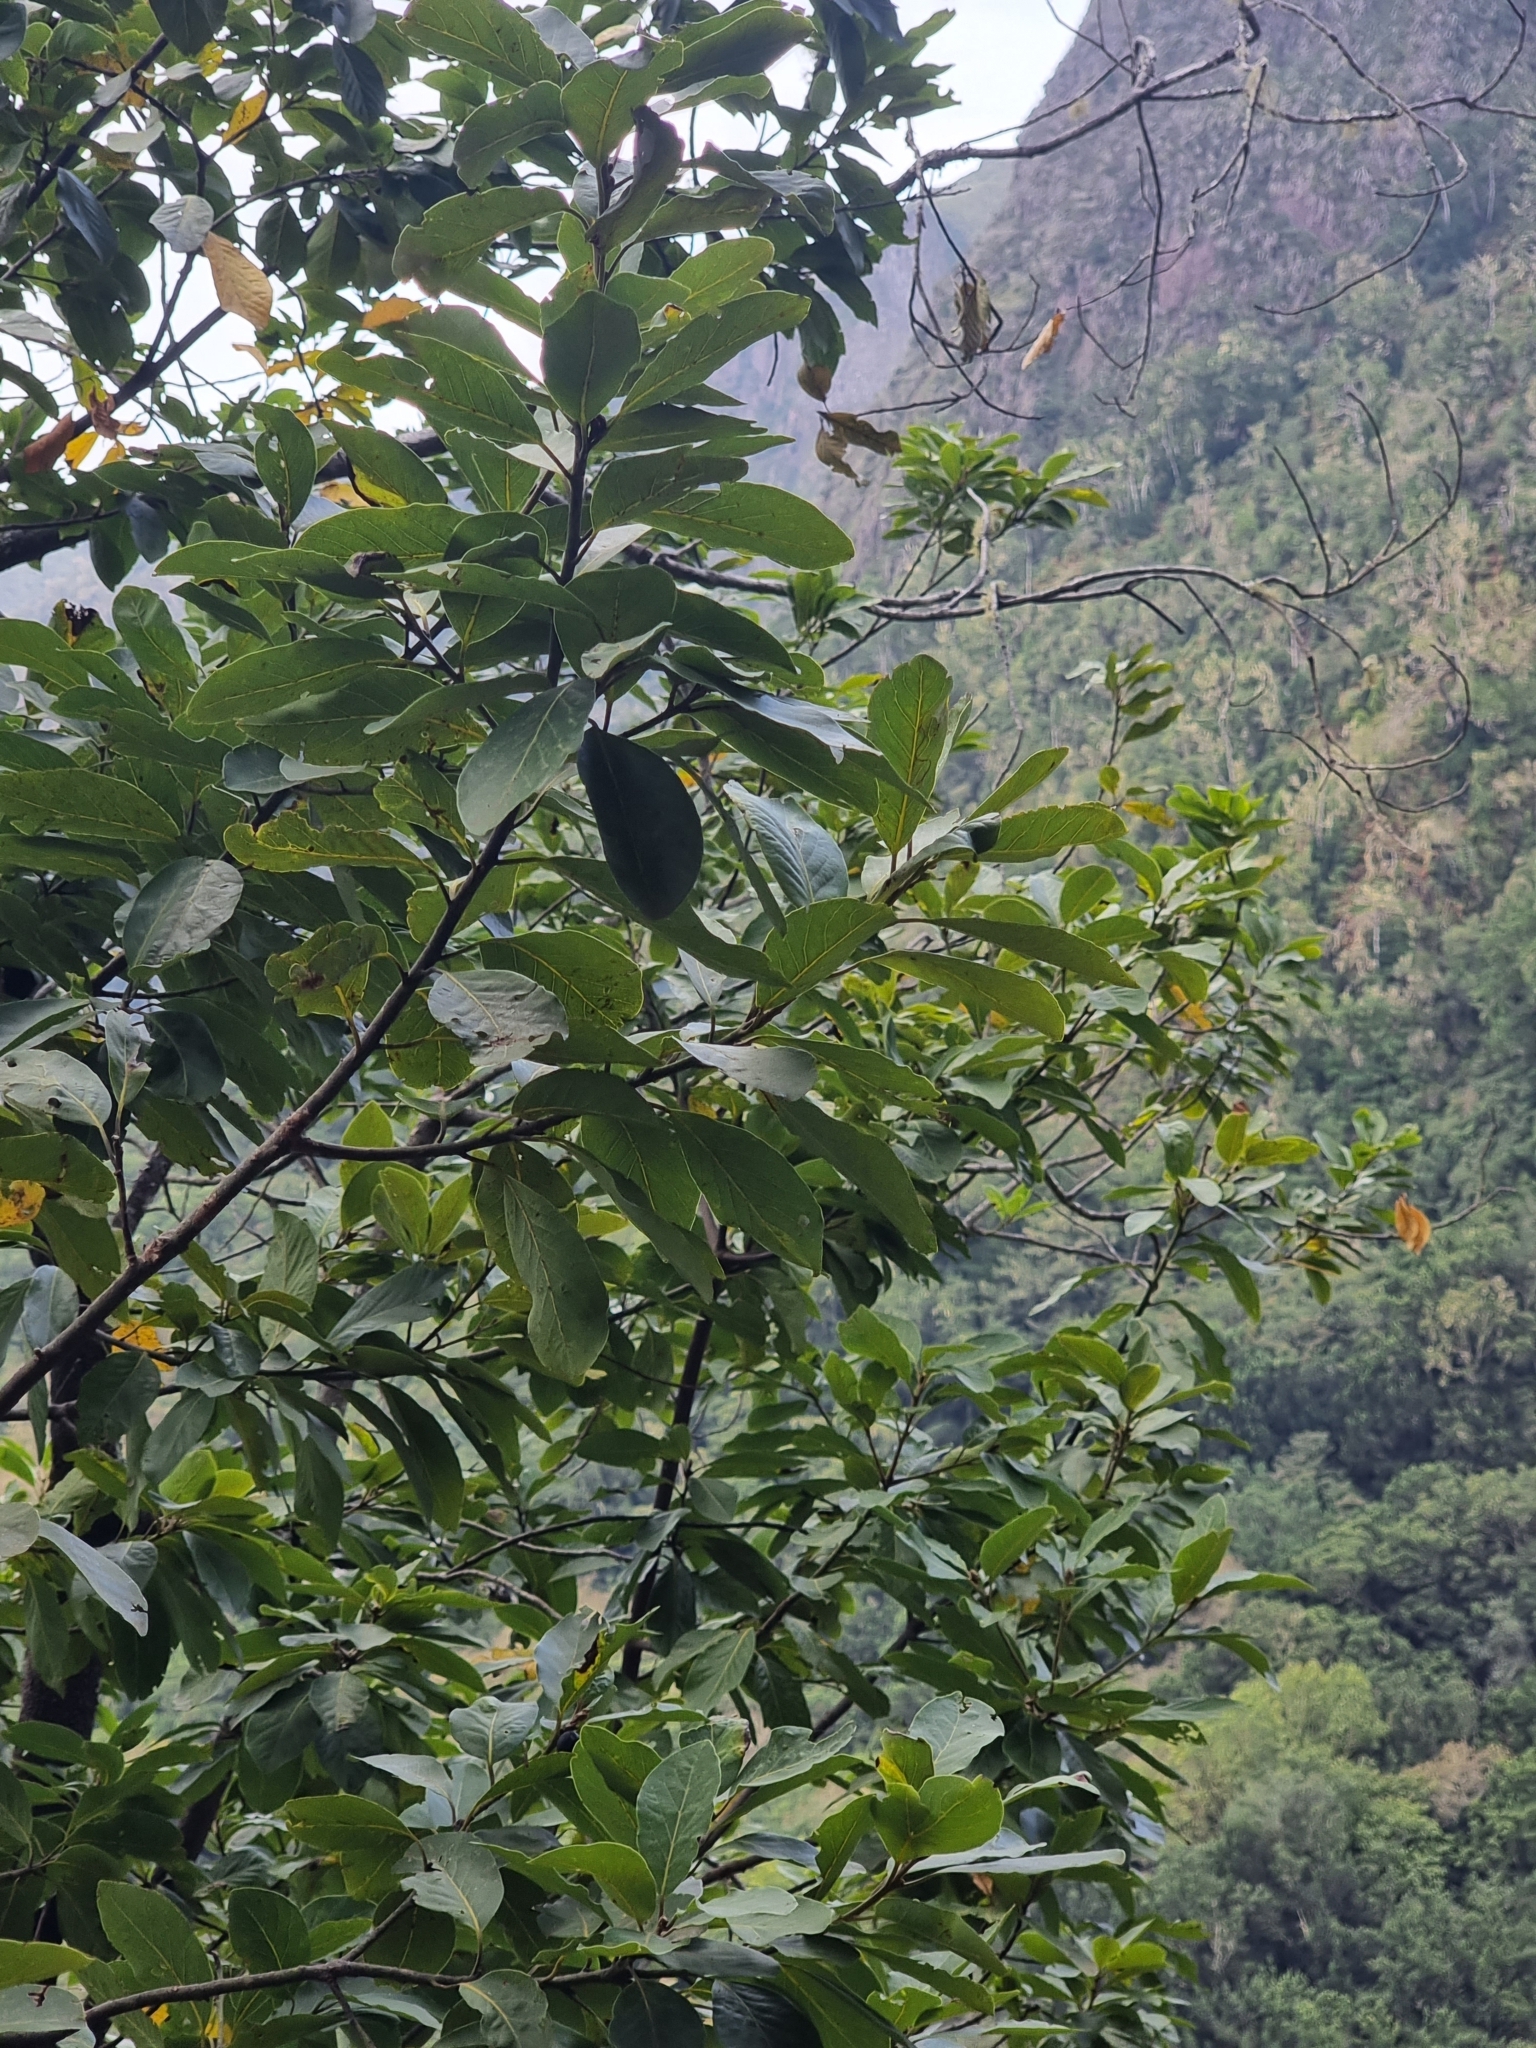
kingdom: Plantae
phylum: Tracheophyta
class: Magnoliopsida
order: Laurales
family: Lauraceae
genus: Laurus
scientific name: Laurus novocanariensis
